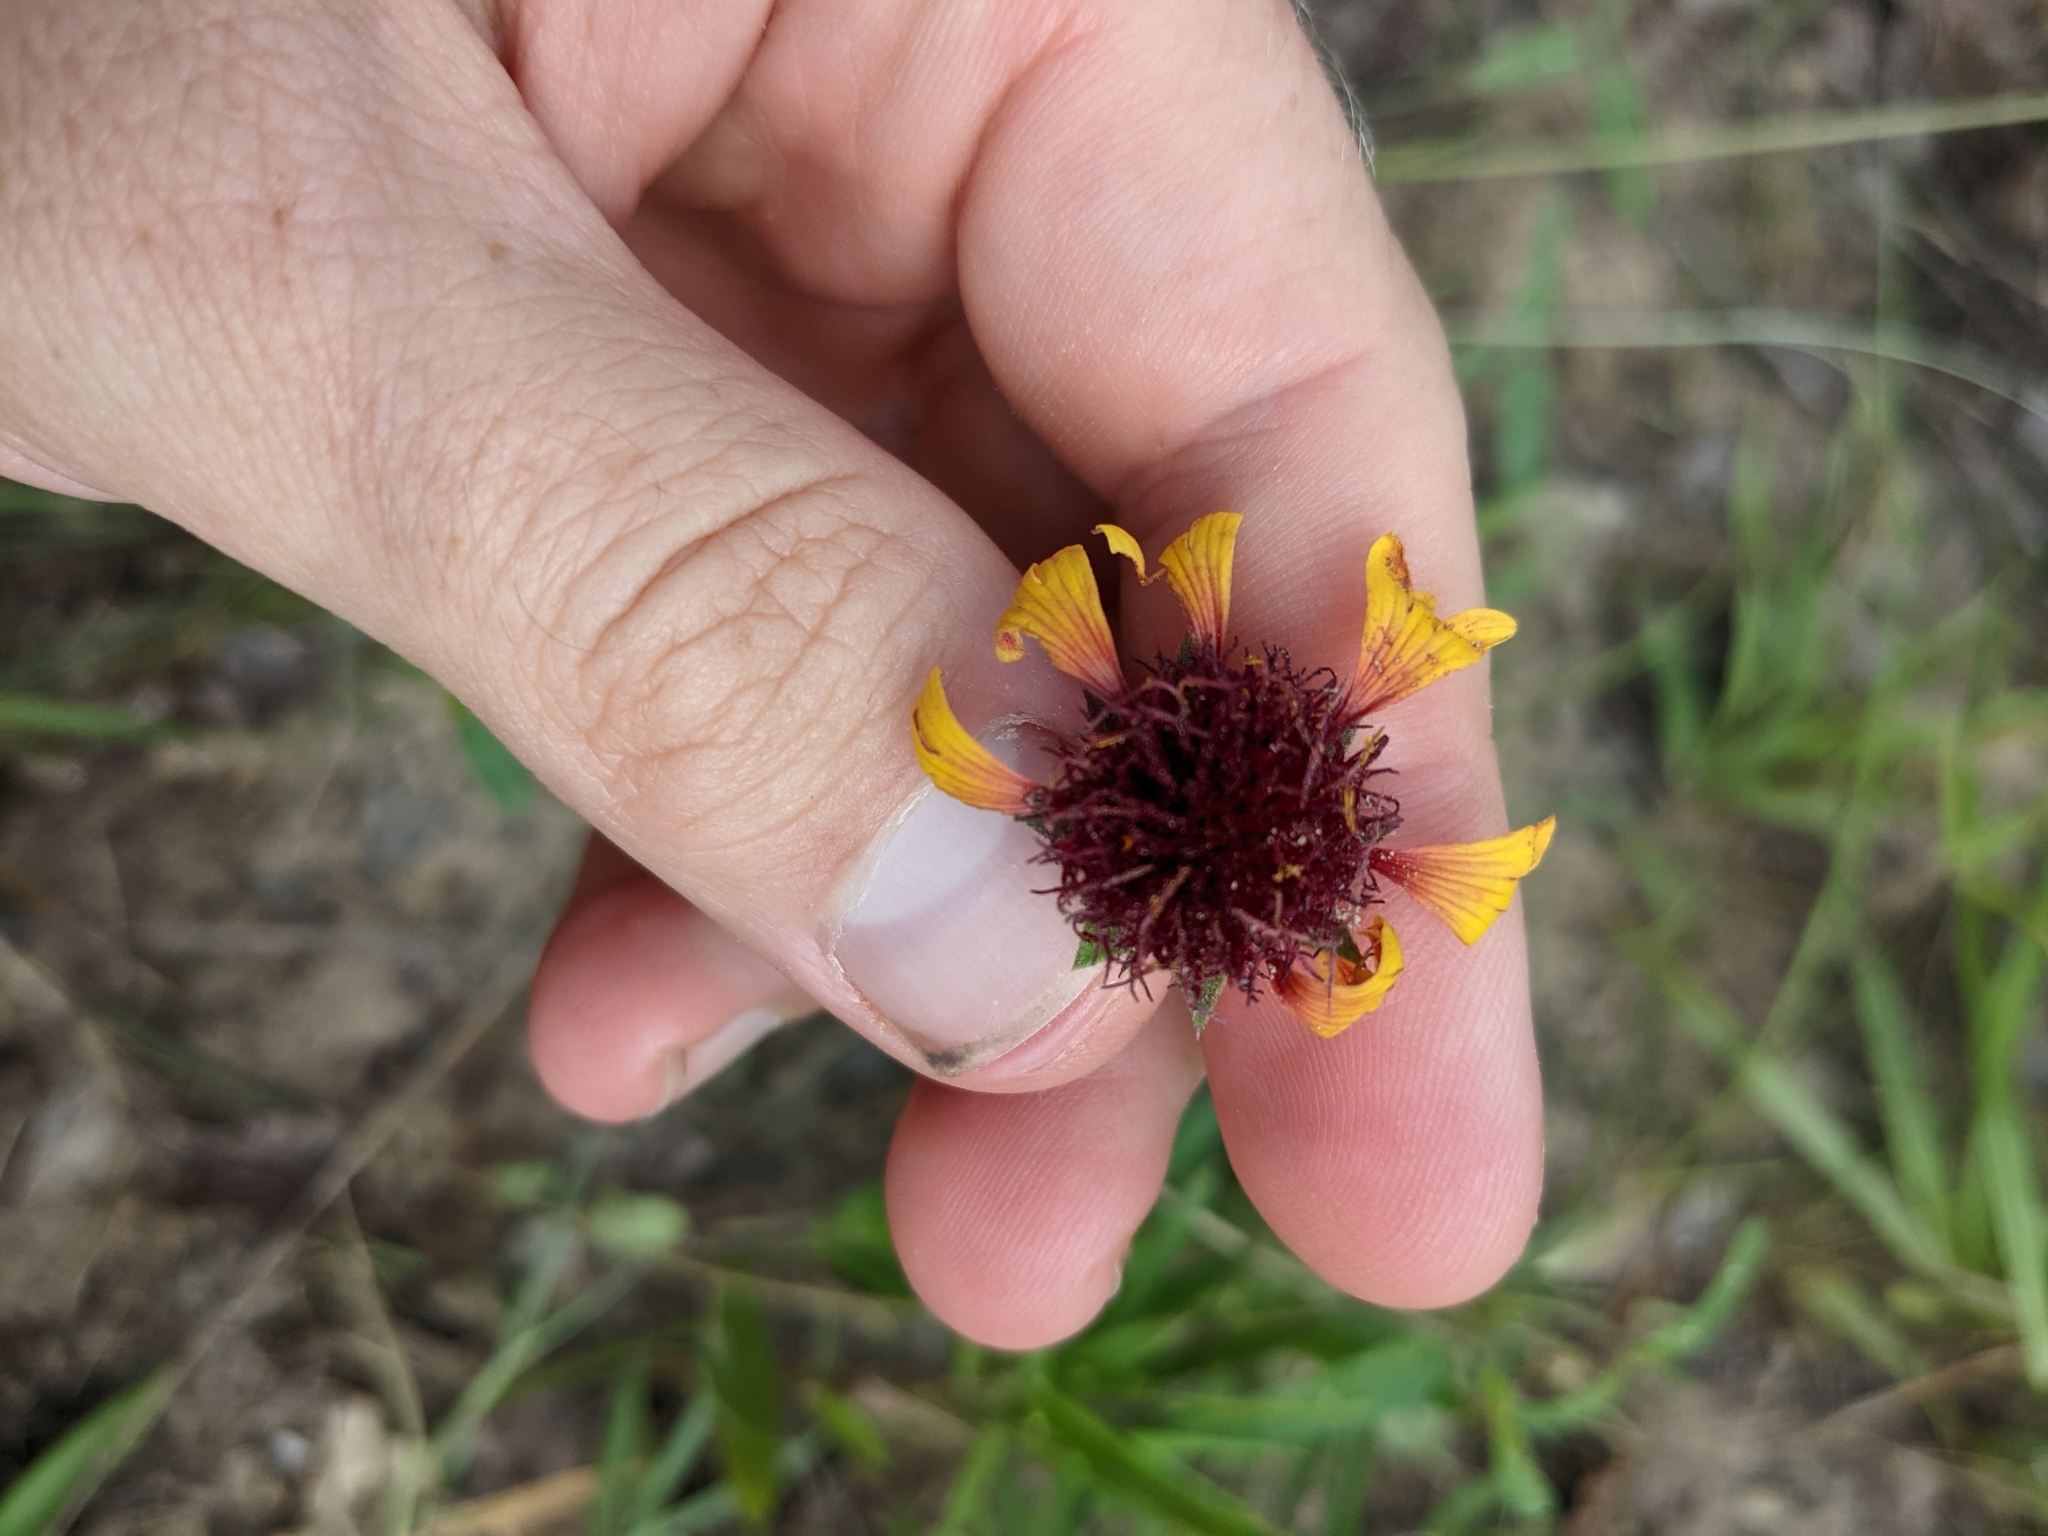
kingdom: Plantae
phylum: Tracheophyta
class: Magnoliopsida
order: Asterales
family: Asteraceae
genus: Gaillardia
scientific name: Gaillardia aestivalis
